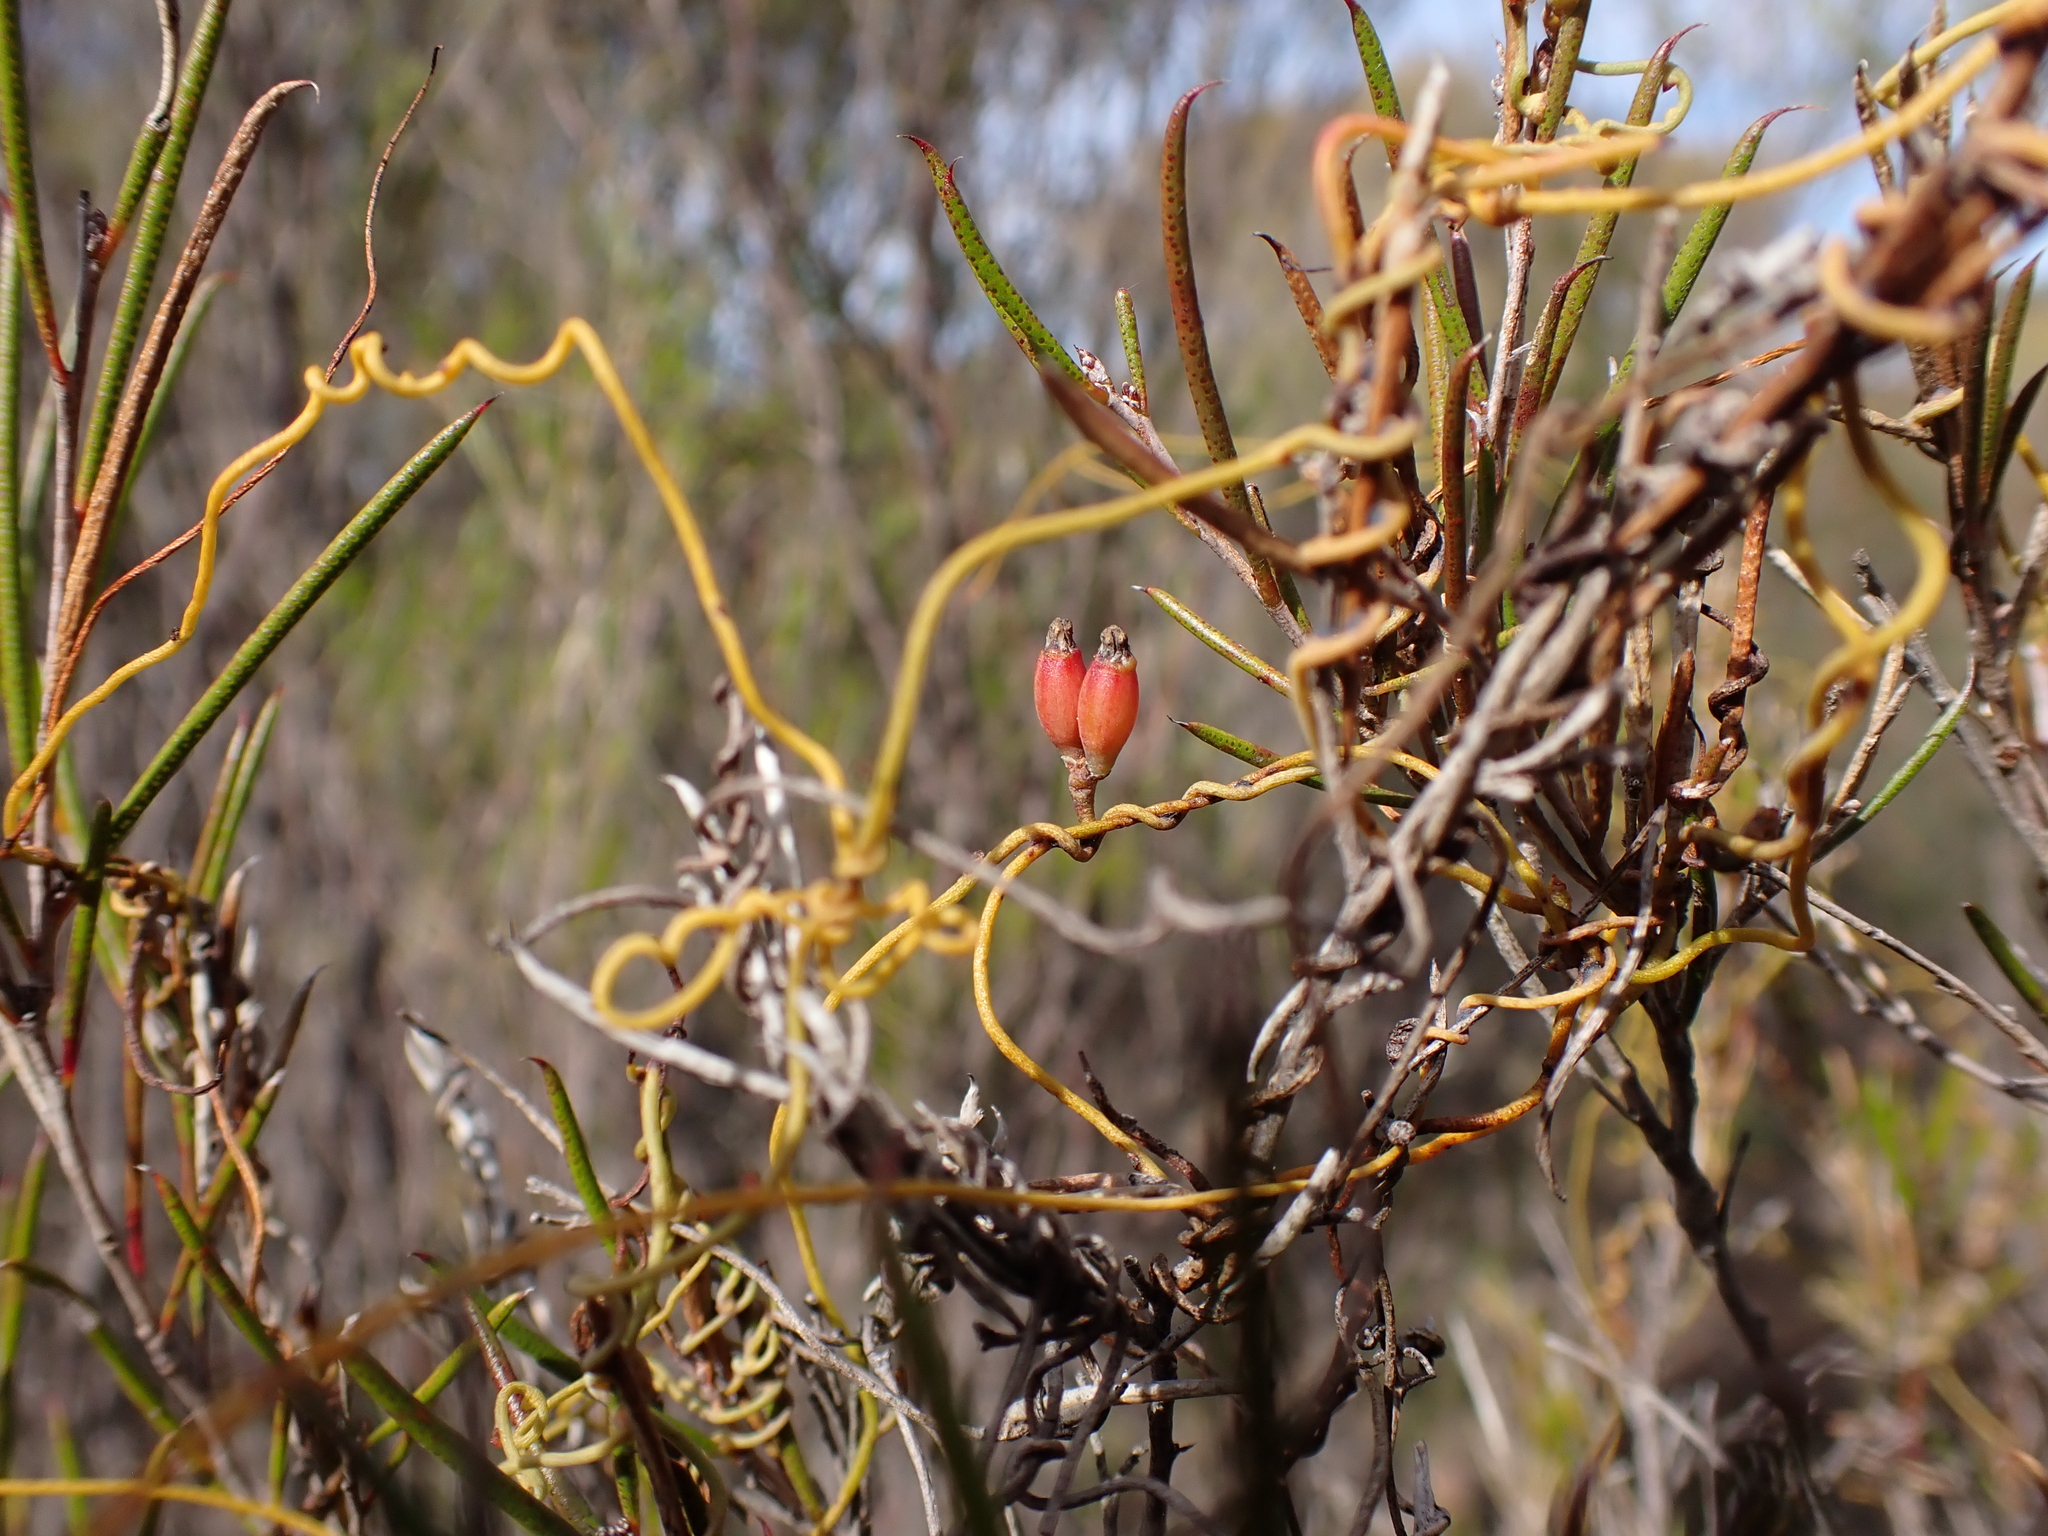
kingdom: Plantae
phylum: Tracheophyta
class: Magnoliopsida
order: Laurales
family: Lauraceae
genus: Cassytha
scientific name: Cassytha glabella
